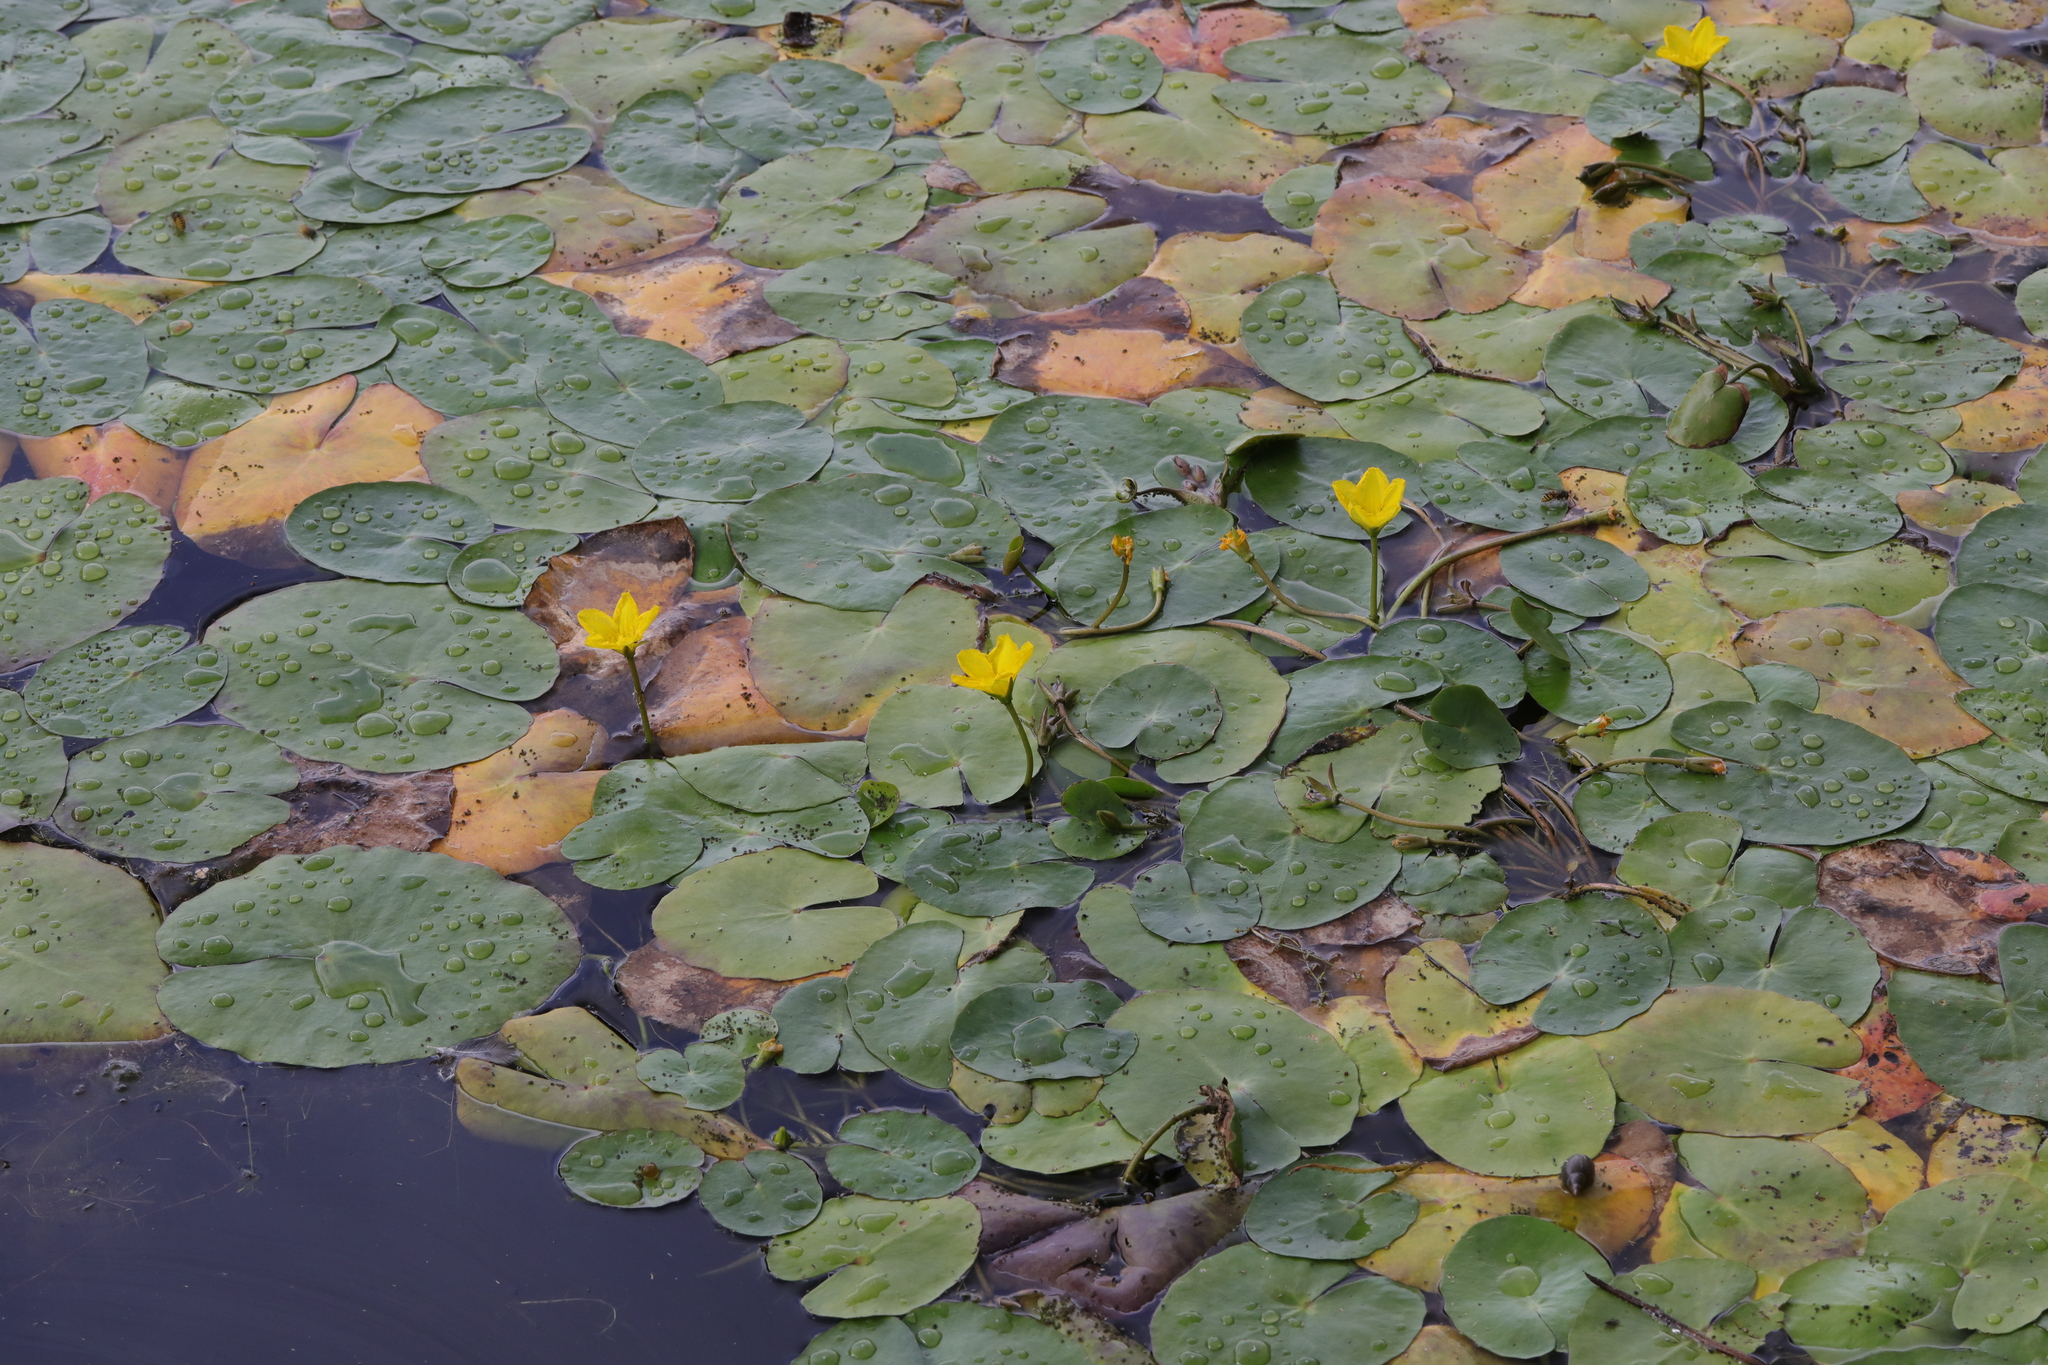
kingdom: Plantae
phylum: Tracheophyta
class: Magnoliopsida
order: Asterales
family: Menyanthaceae
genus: Nymphoides
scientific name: Nymphoides peltata
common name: Fringed water-lily
